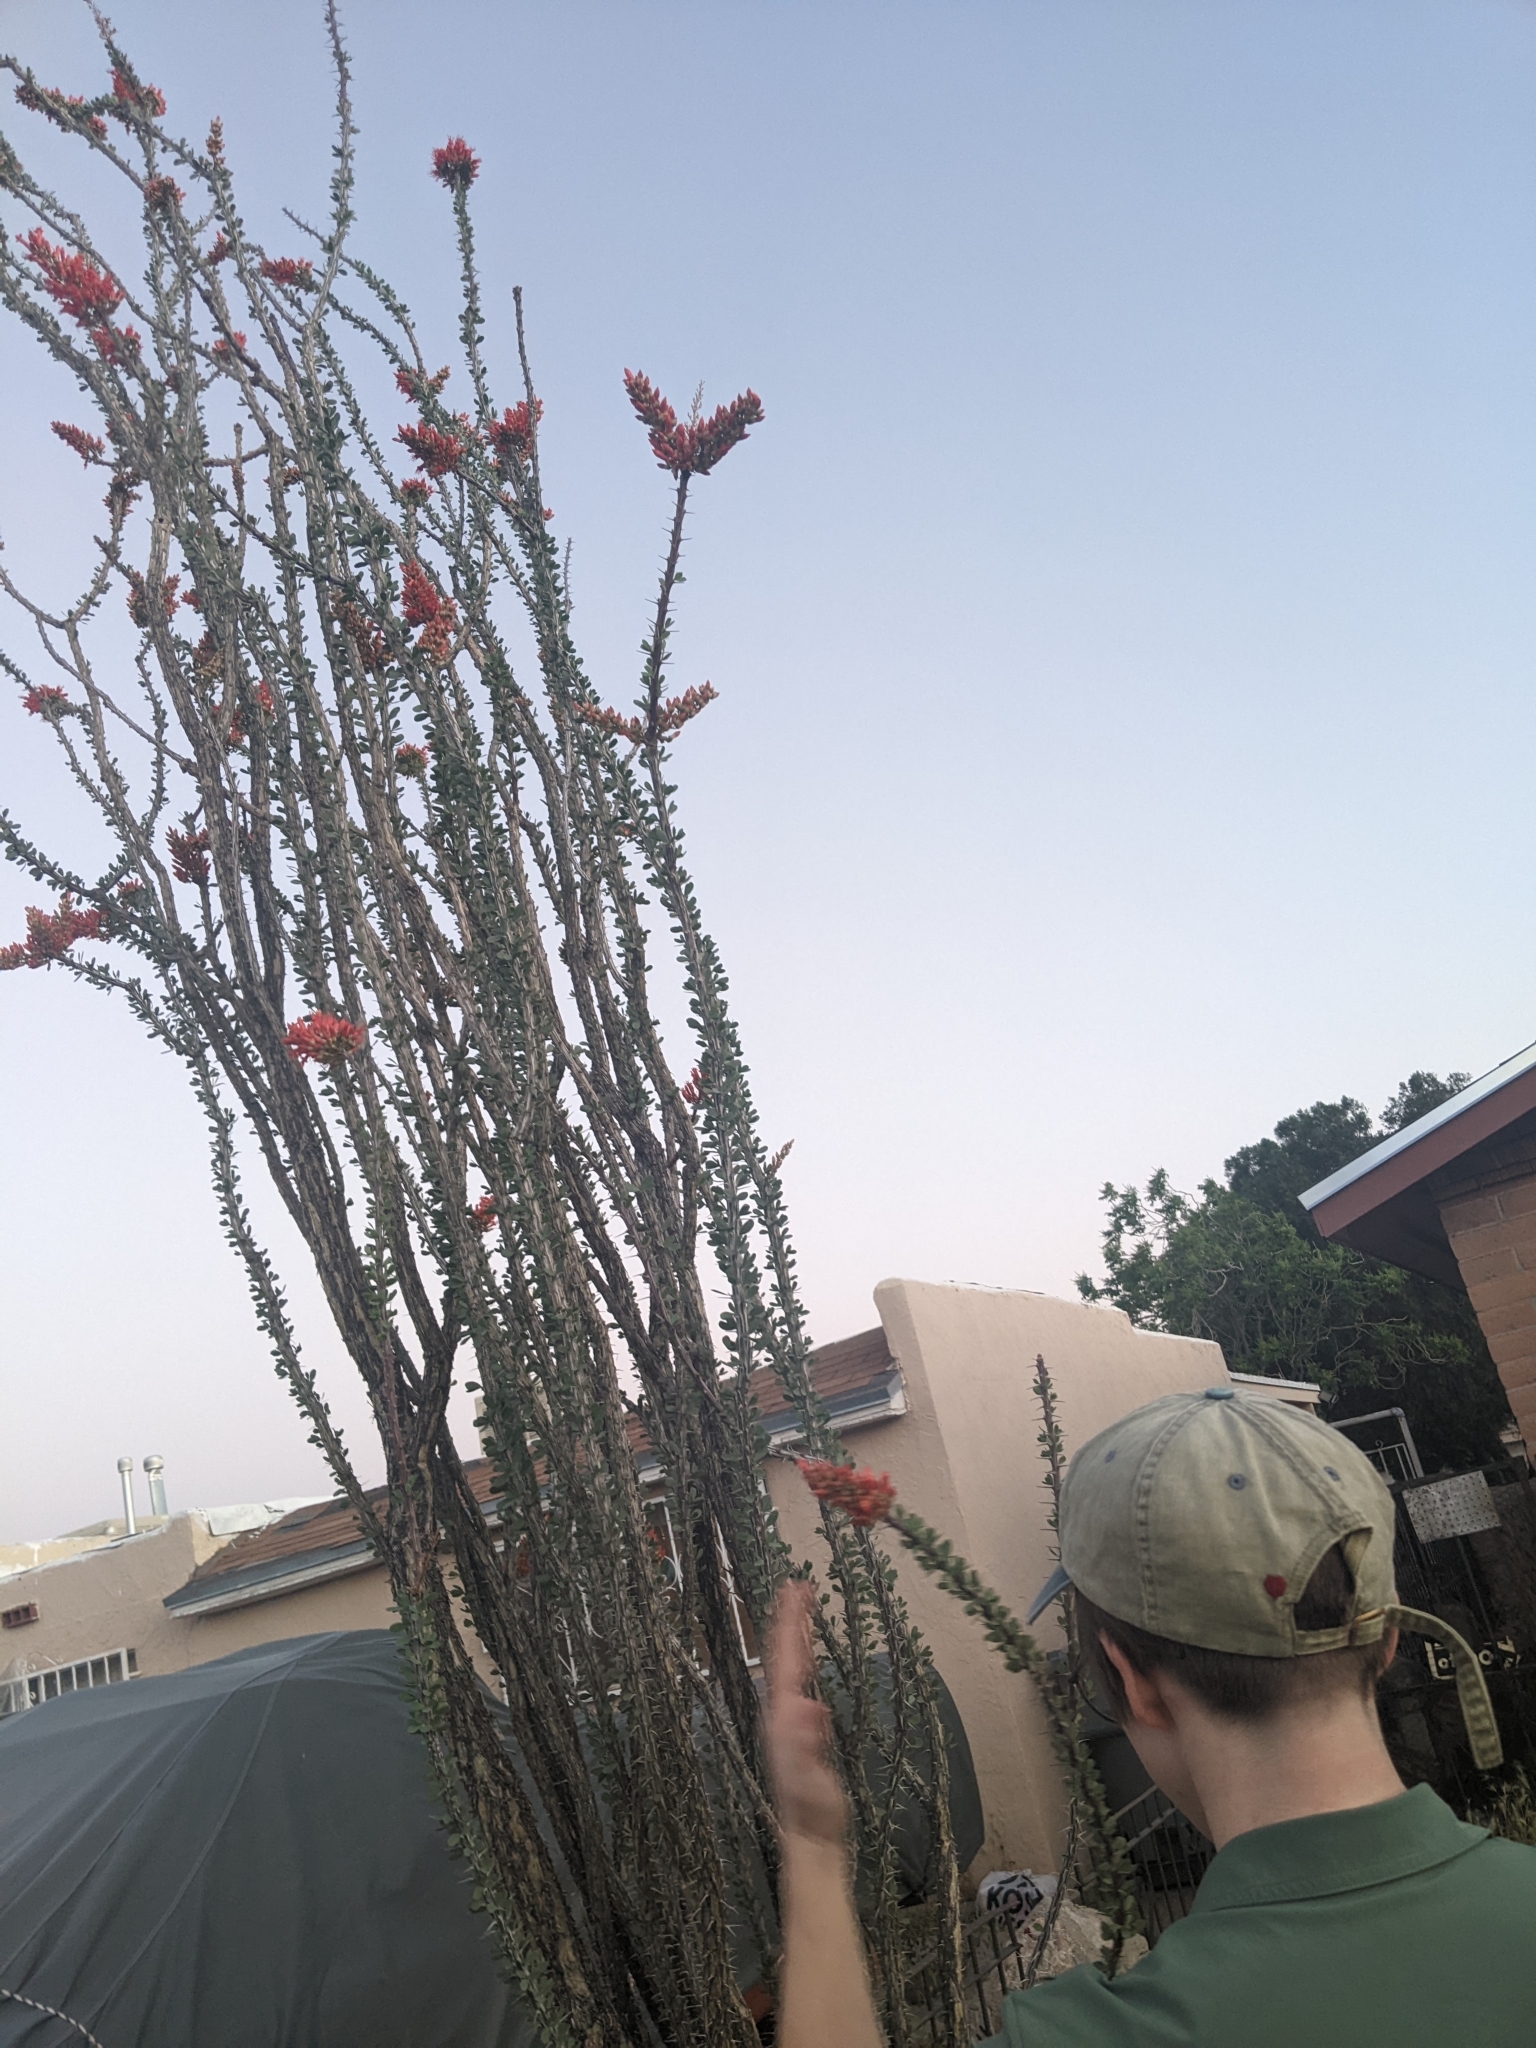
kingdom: Plantae
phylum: Tracheophyta
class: Magnoliopsida
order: Ericales
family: Fouquieriaceae
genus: Fouquieria
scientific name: Fouquieria splendens
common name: Vine-cactus
